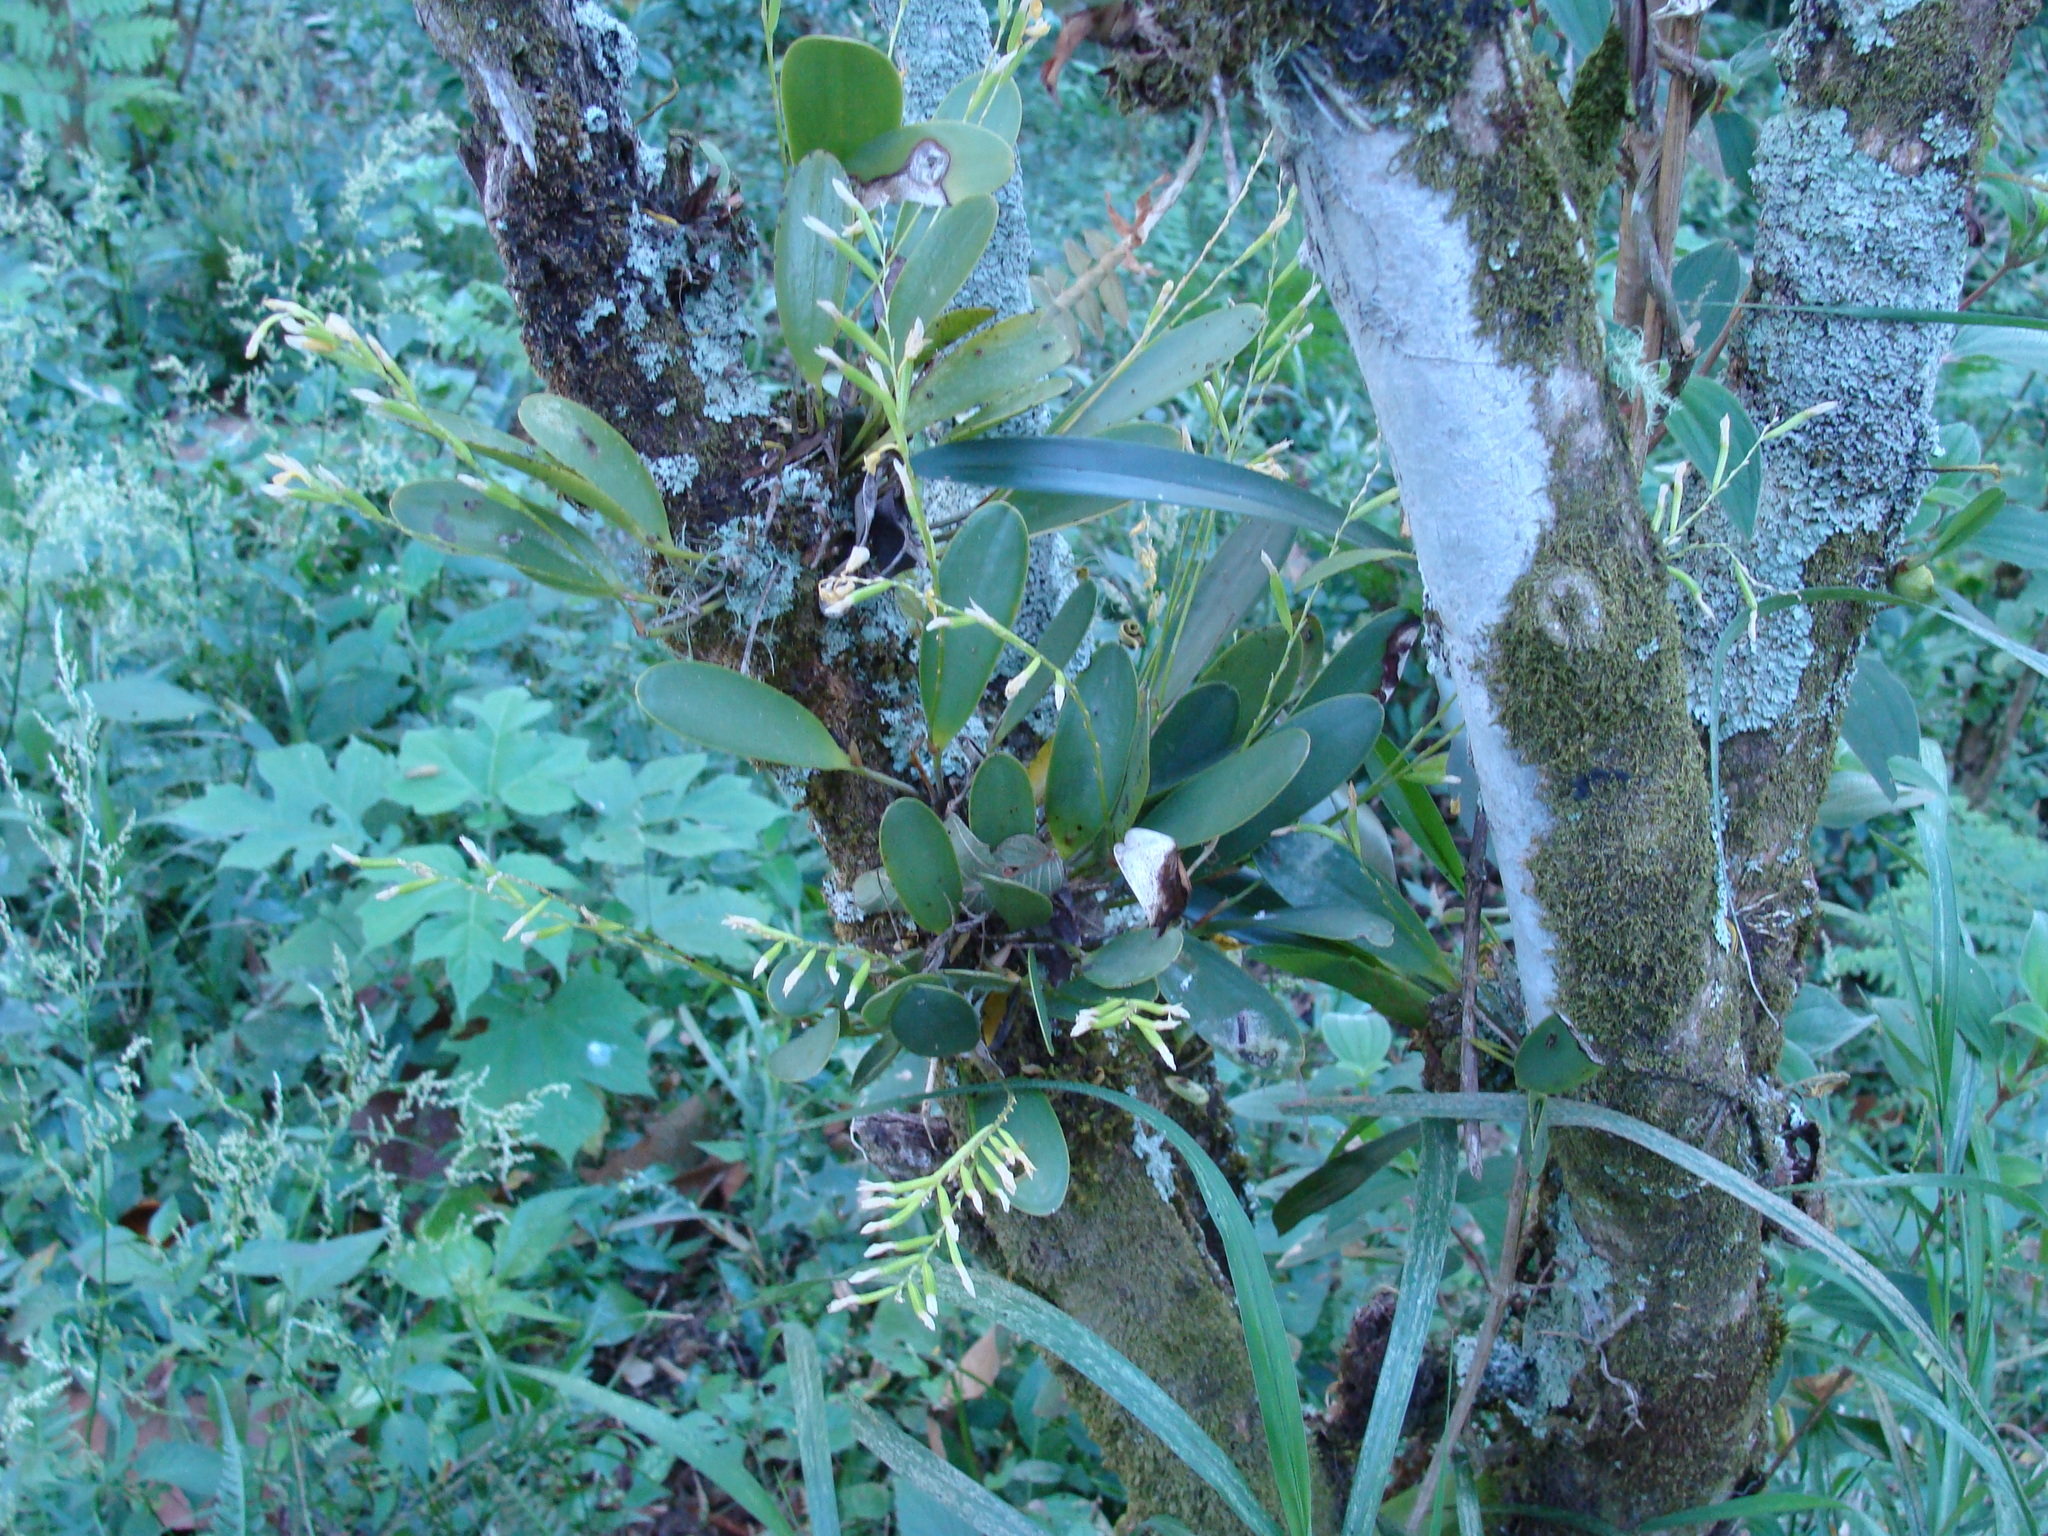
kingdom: Plantae
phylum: Tracheophyta
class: Liliopsida
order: Asparagales
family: Orchidaceae
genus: Stelis
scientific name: Stelis deregularis
